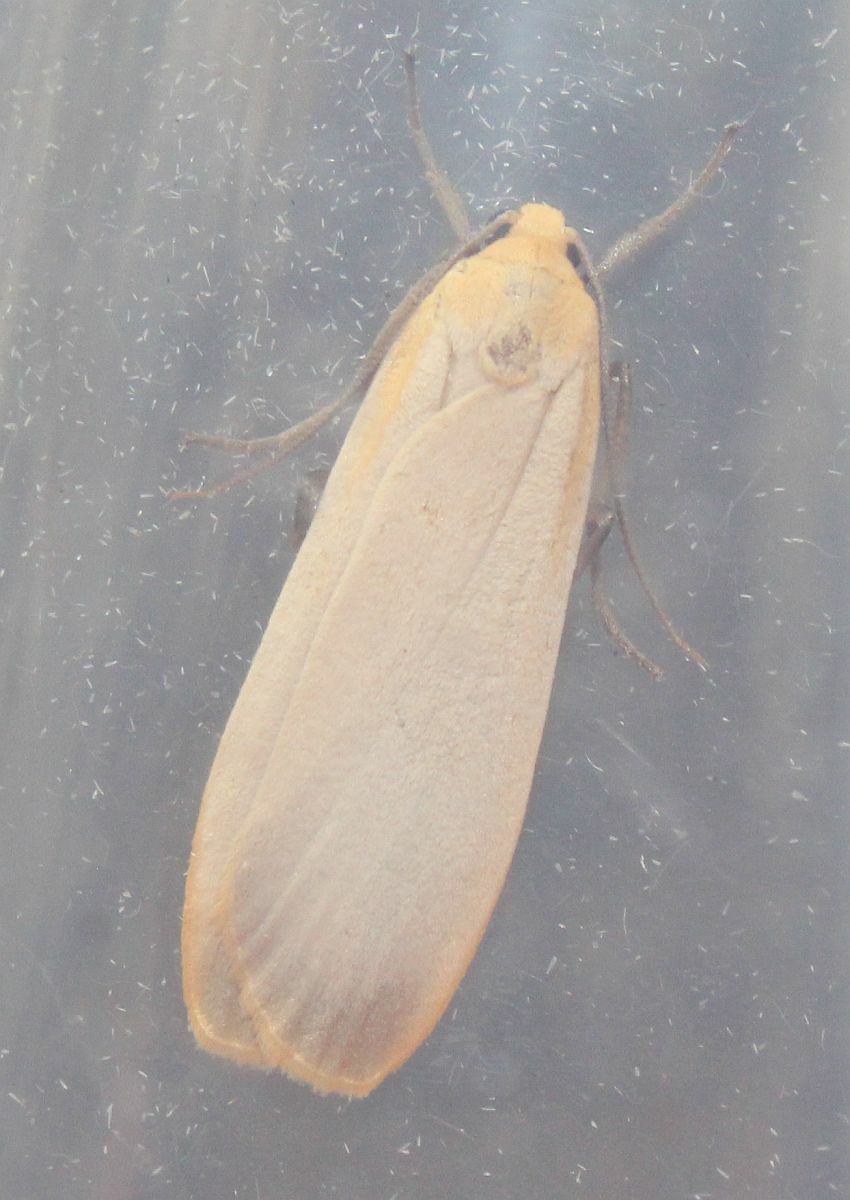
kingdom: Animalia
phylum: Arthropoda
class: Insecta
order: Lepidoptera
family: Erebidae
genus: Katha
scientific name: Katha depressa
